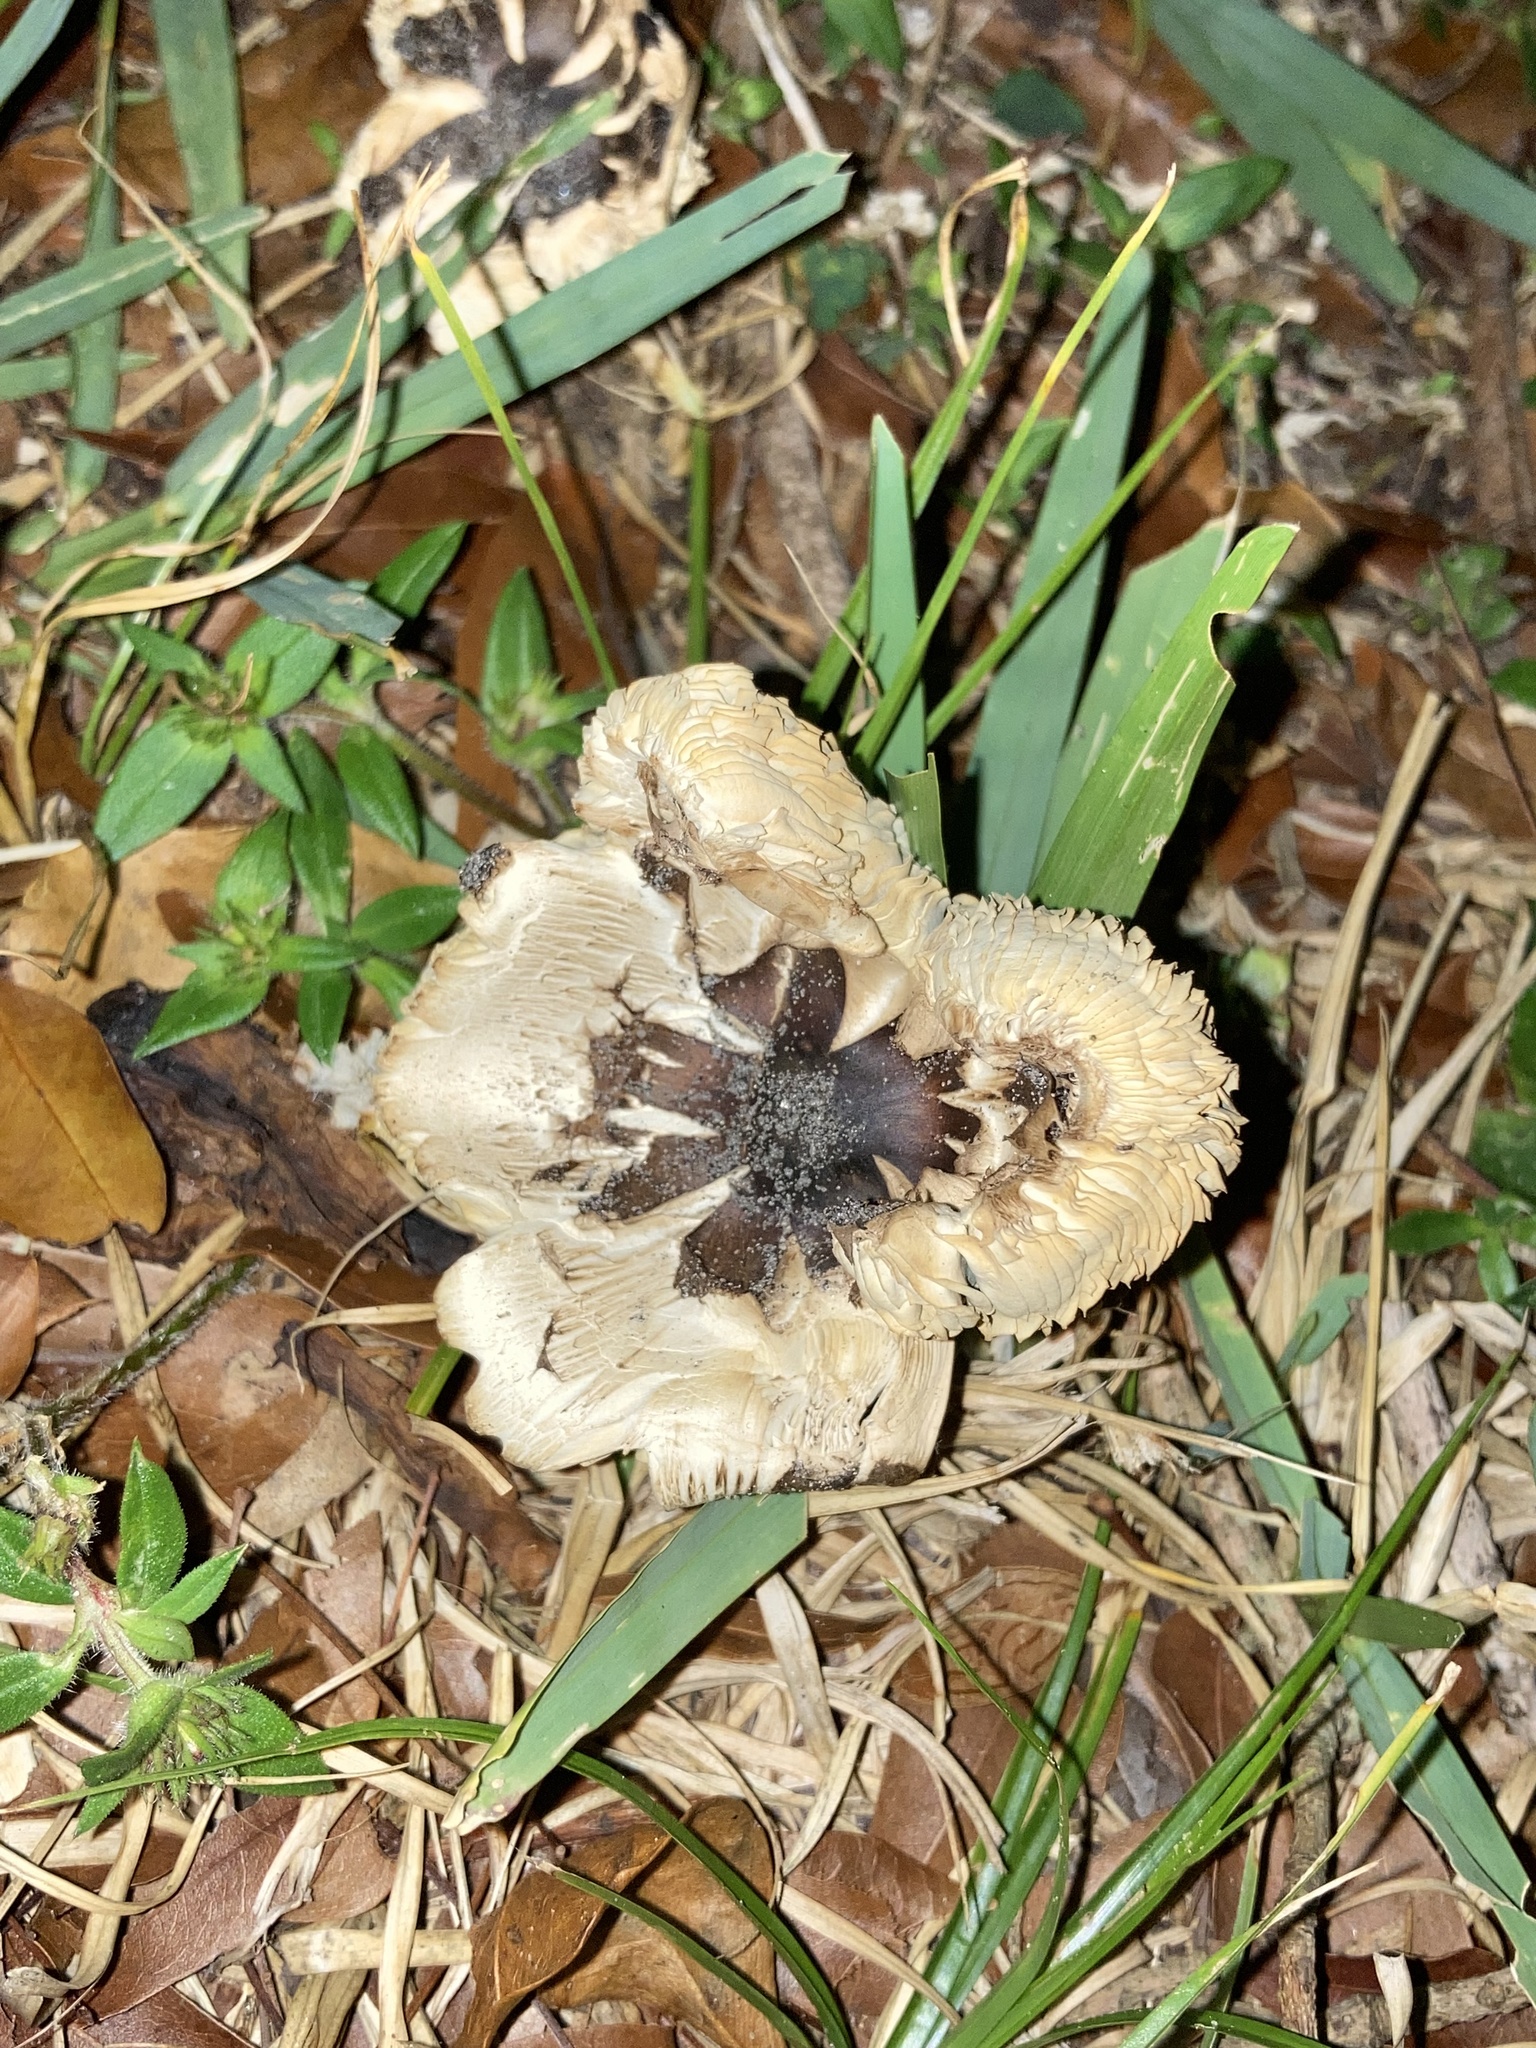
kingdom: Fungi
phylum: Basidiomycota
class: Agaricomycetes
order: Agaricales
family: Agaricaceae
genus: Chlorophyllum
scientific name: Chlorophyllum molybdites
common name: False parasol
